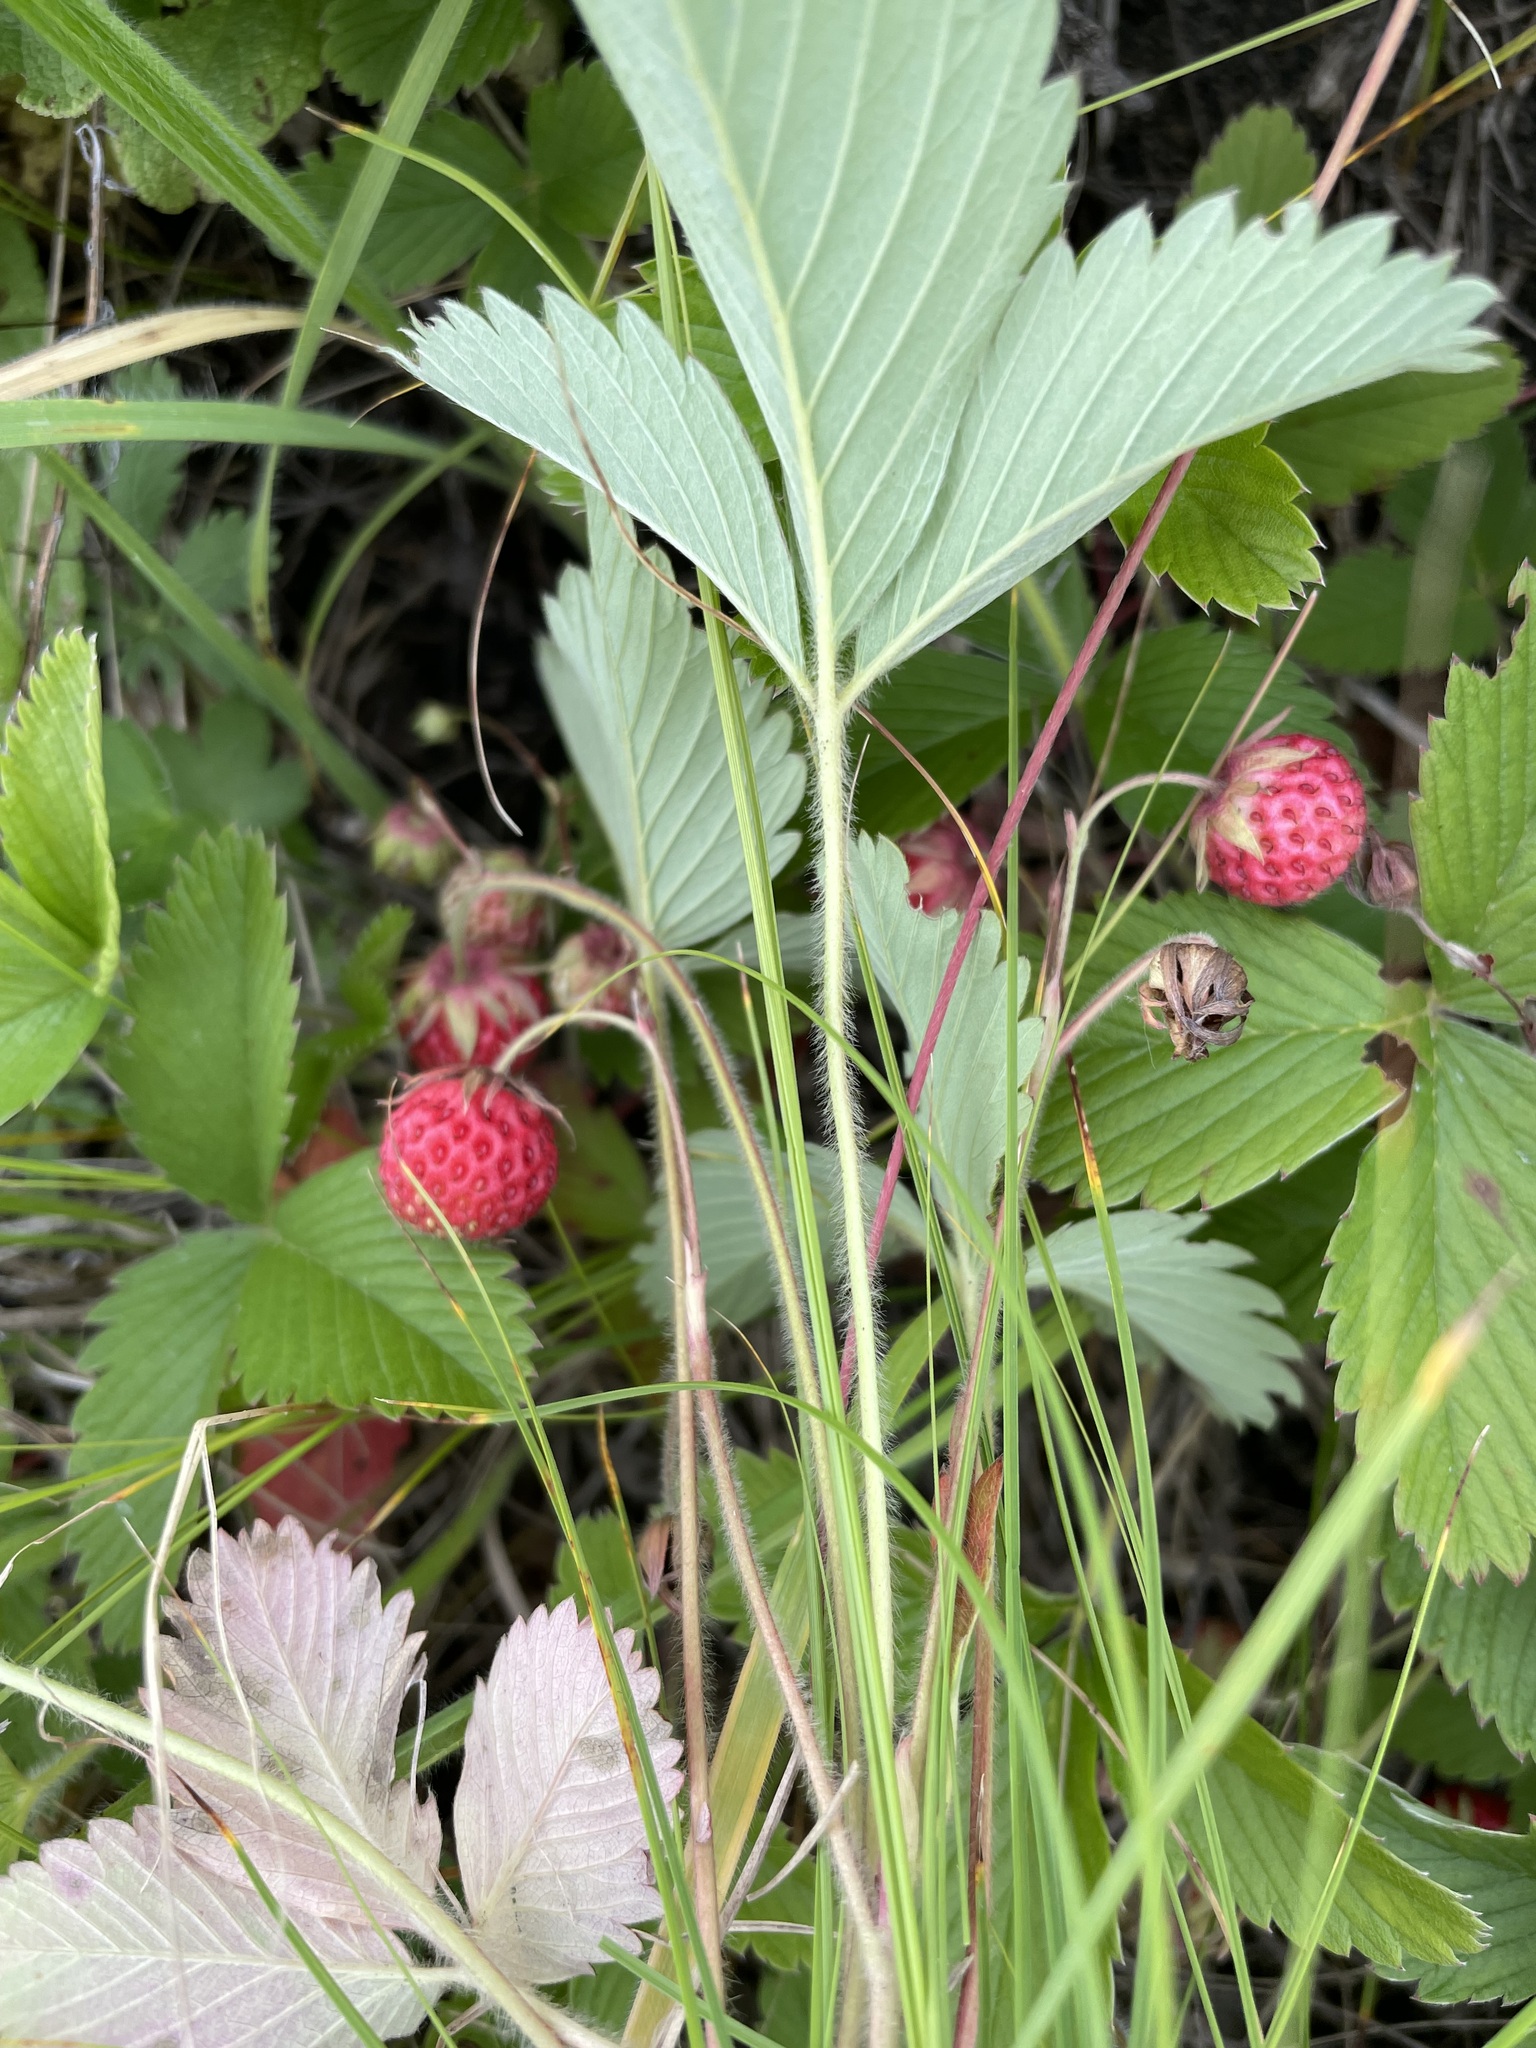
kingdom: Plantae
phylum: Tracheophyta
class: Magnoliopsida
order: Rosales
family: Rosaceae
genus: Fragaria
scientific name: Fragaria viridis
